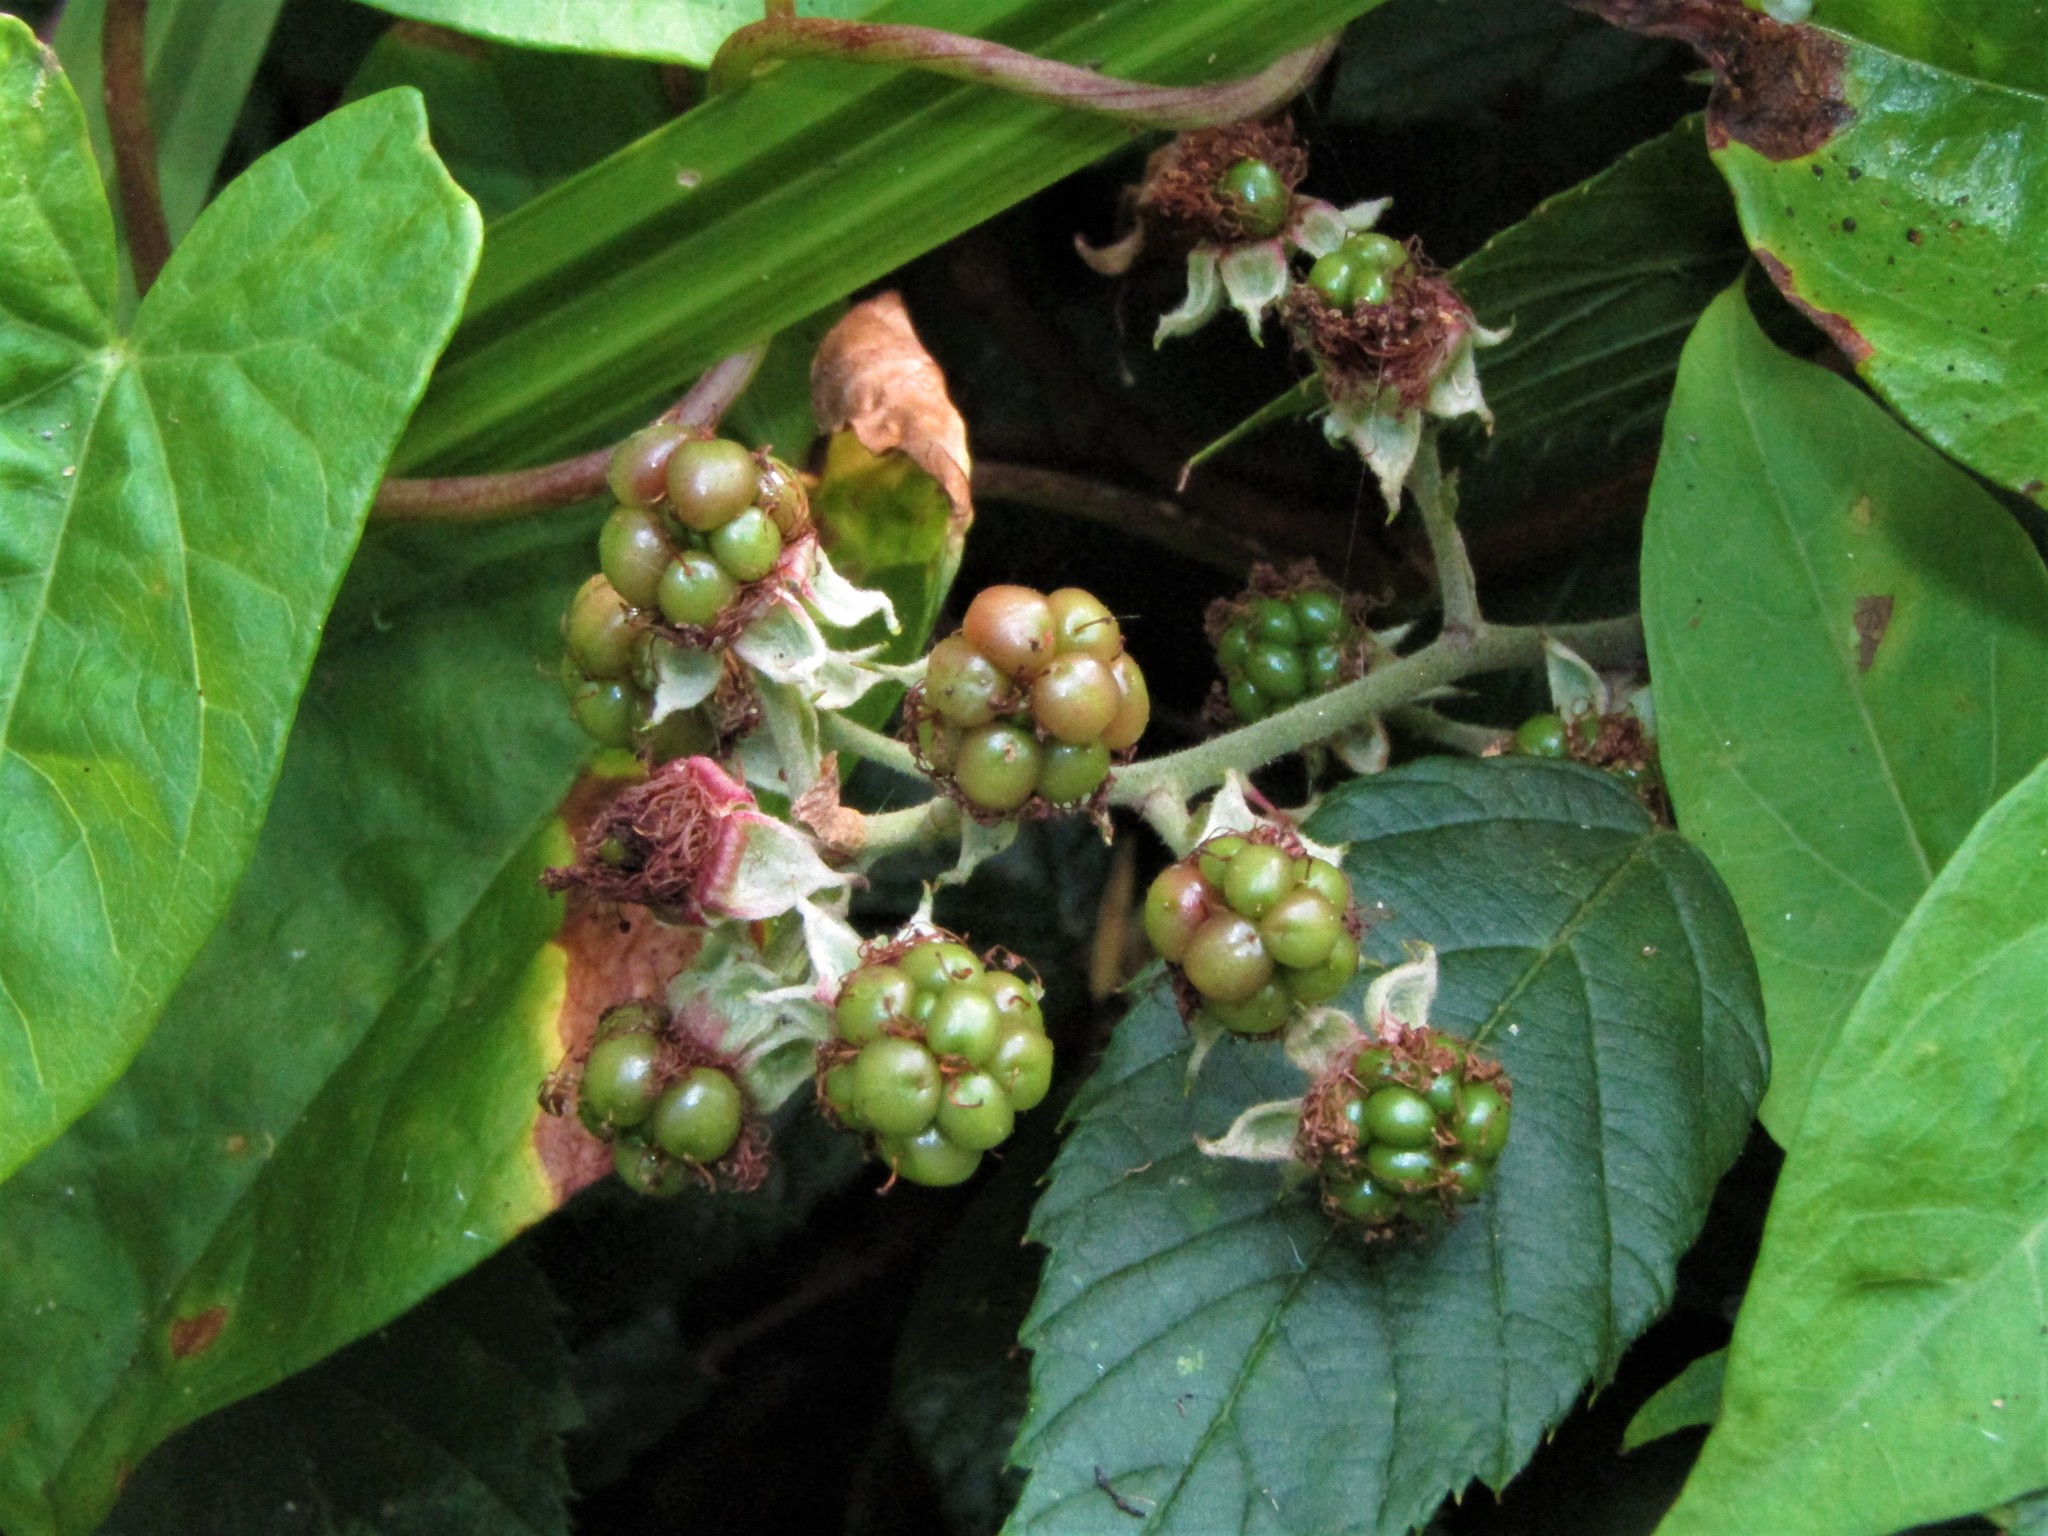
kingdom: Plantae
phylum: Tracheophyta
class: Magnoliopsida
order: Rosales
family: Rosaceae
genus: Rubus
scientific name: Rubus
